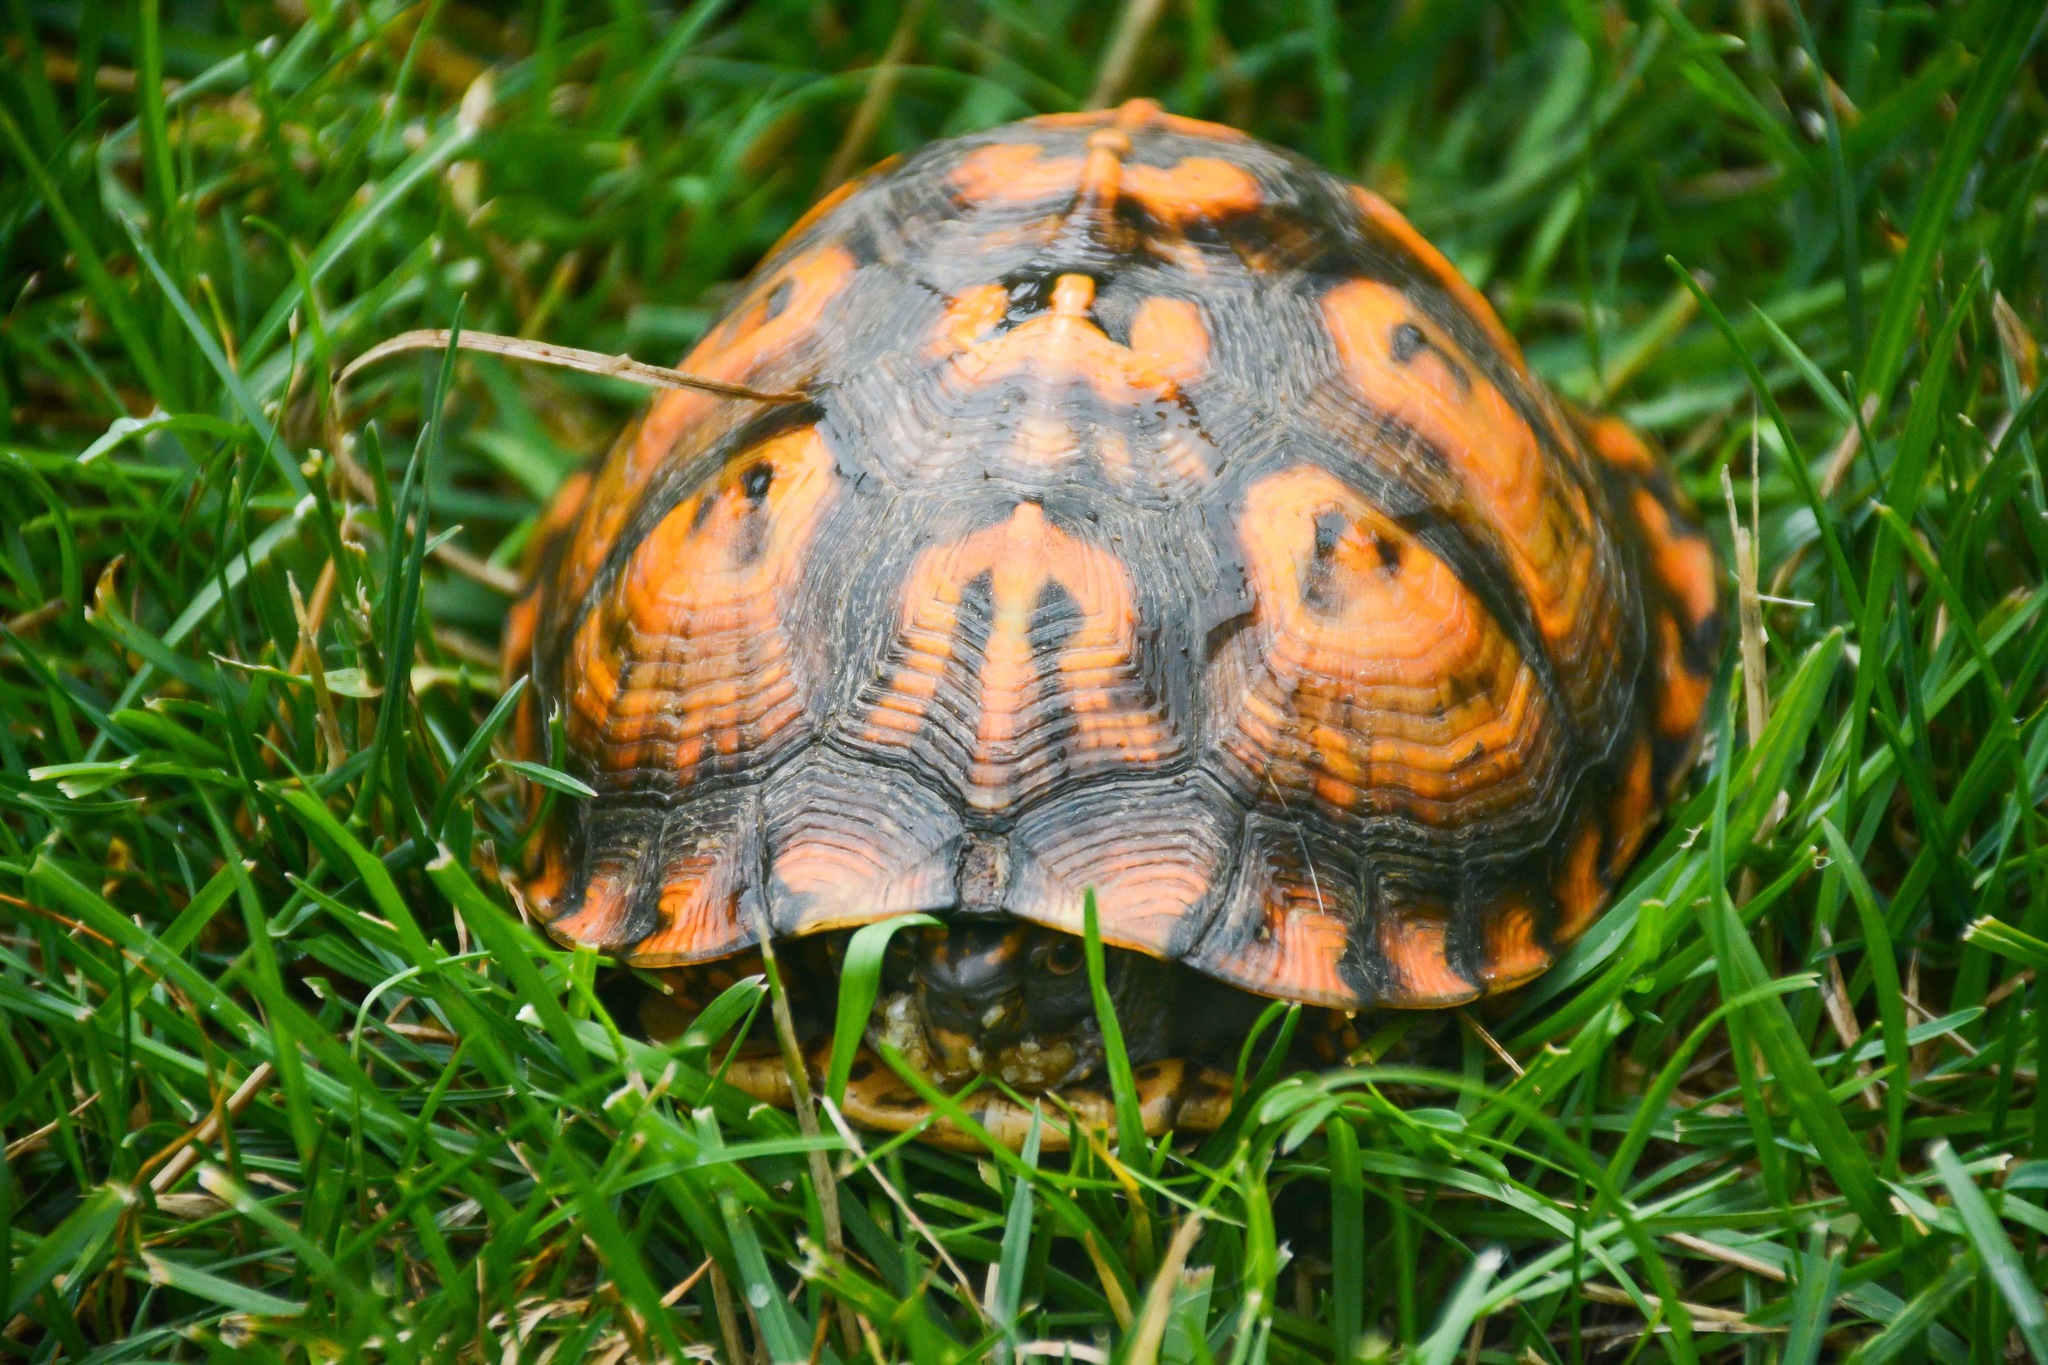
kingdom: Animalia
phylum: Chordata
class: Testudines
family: Emydidae
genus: Terrapene
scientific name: Terrapene carolina
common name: Common box turtle
